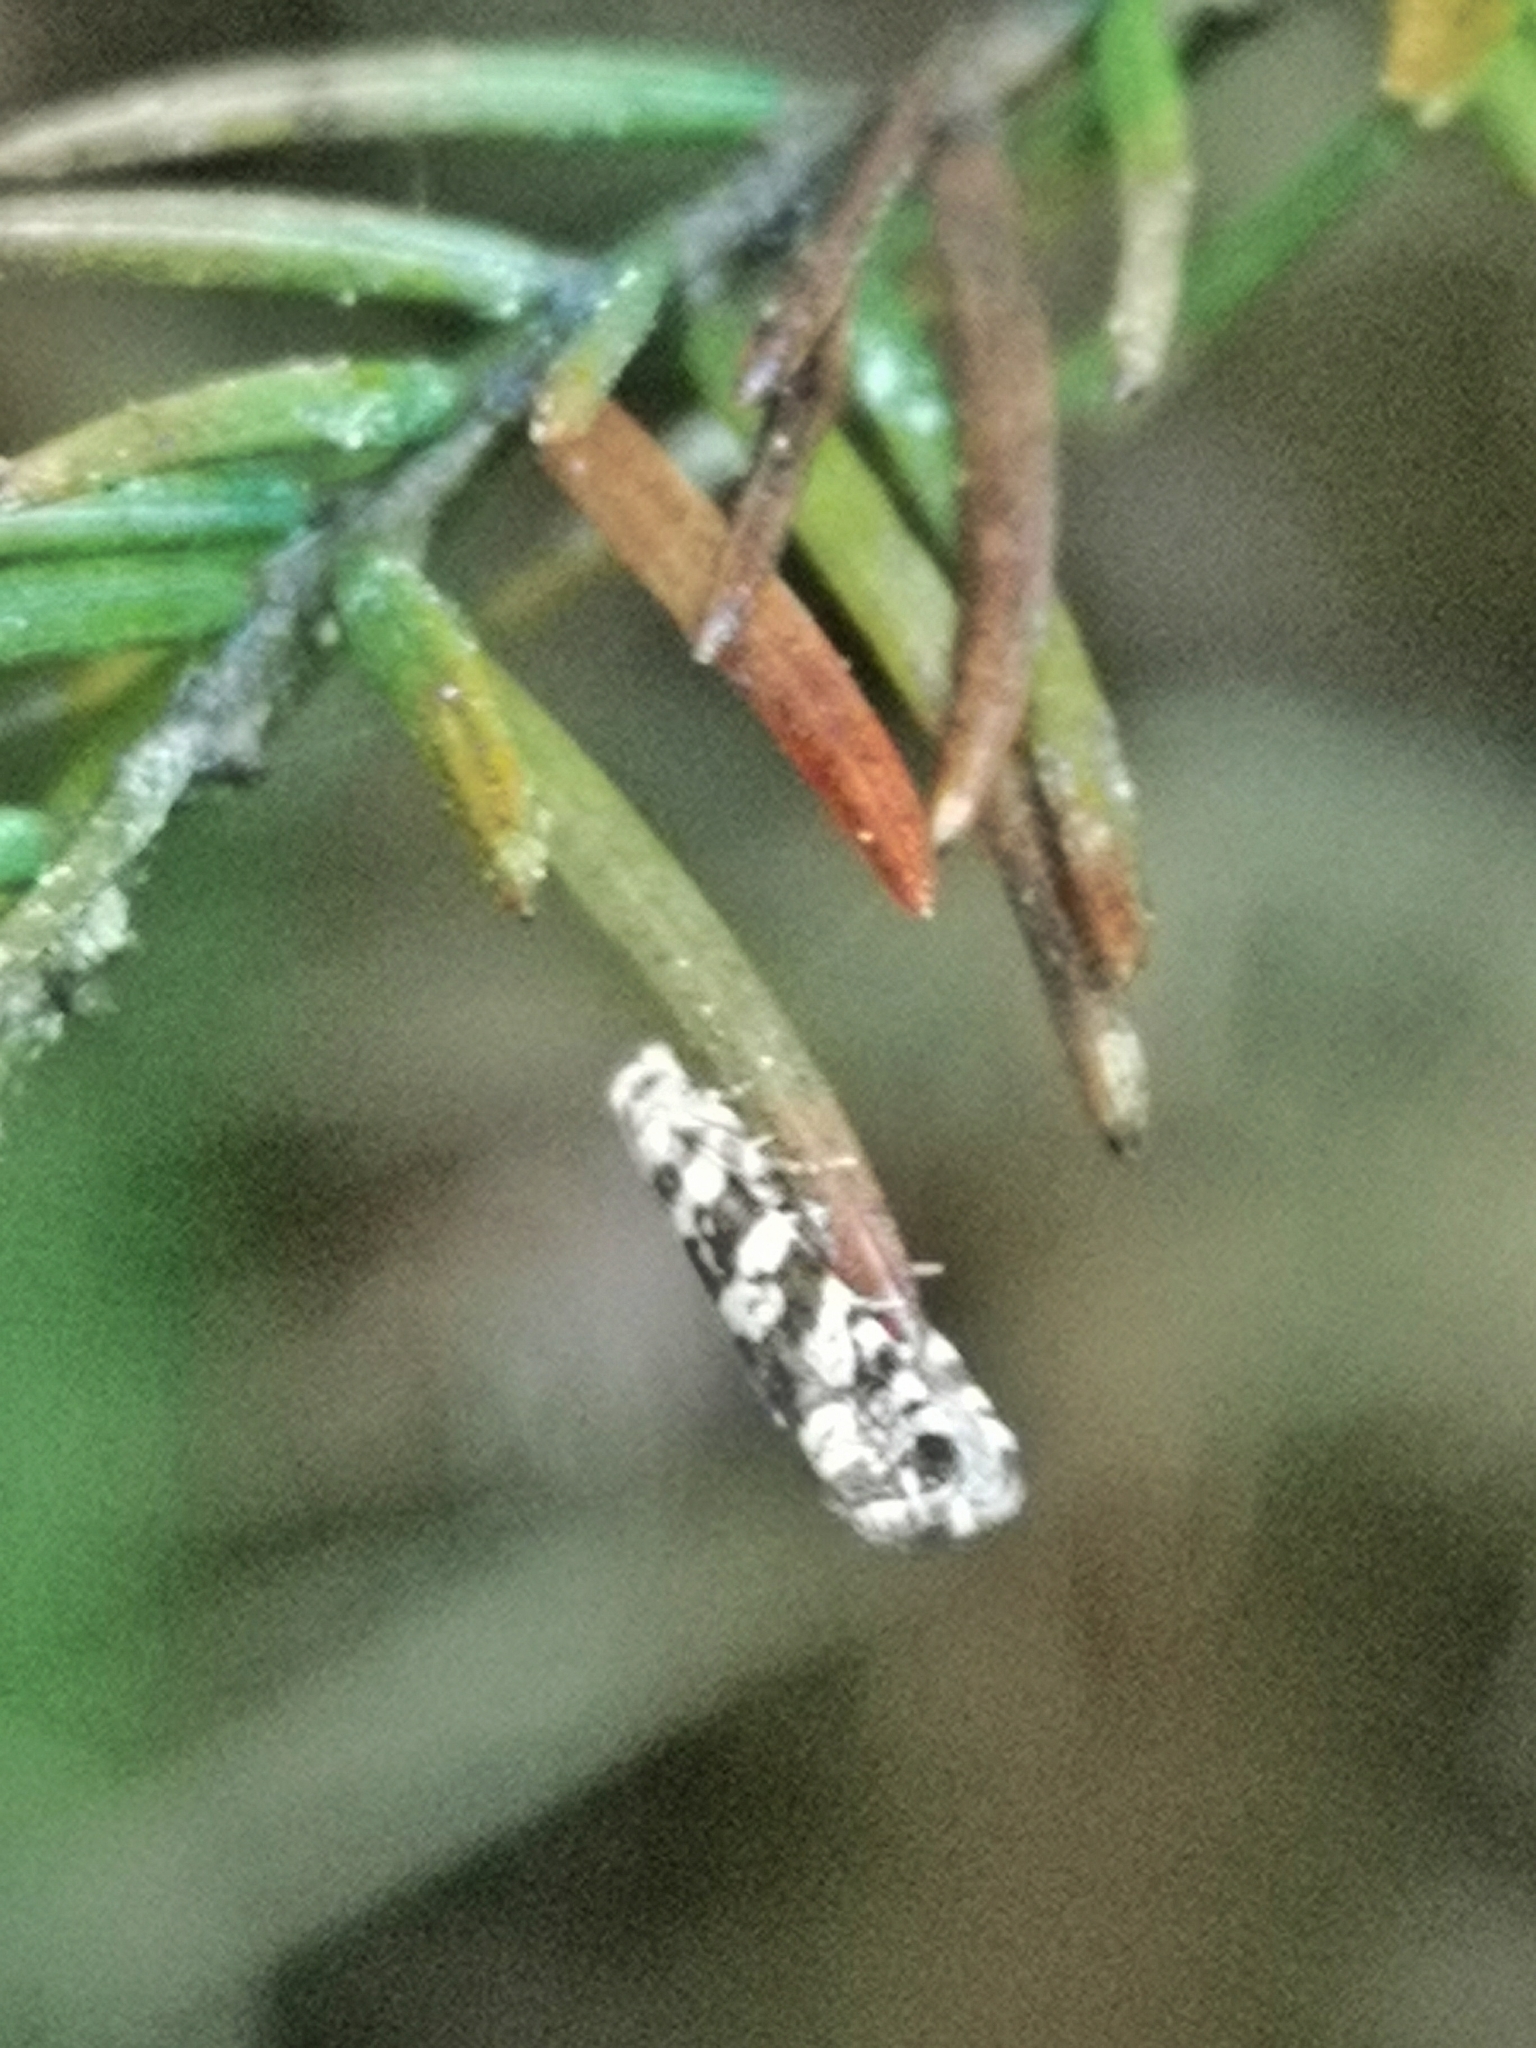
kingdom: Animalia
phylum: Arthropoda
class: Insecta
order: Lepidoptera
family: Tortricidae
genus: Epinotia
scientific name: Epinotia tedella
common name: Common spruce bell
